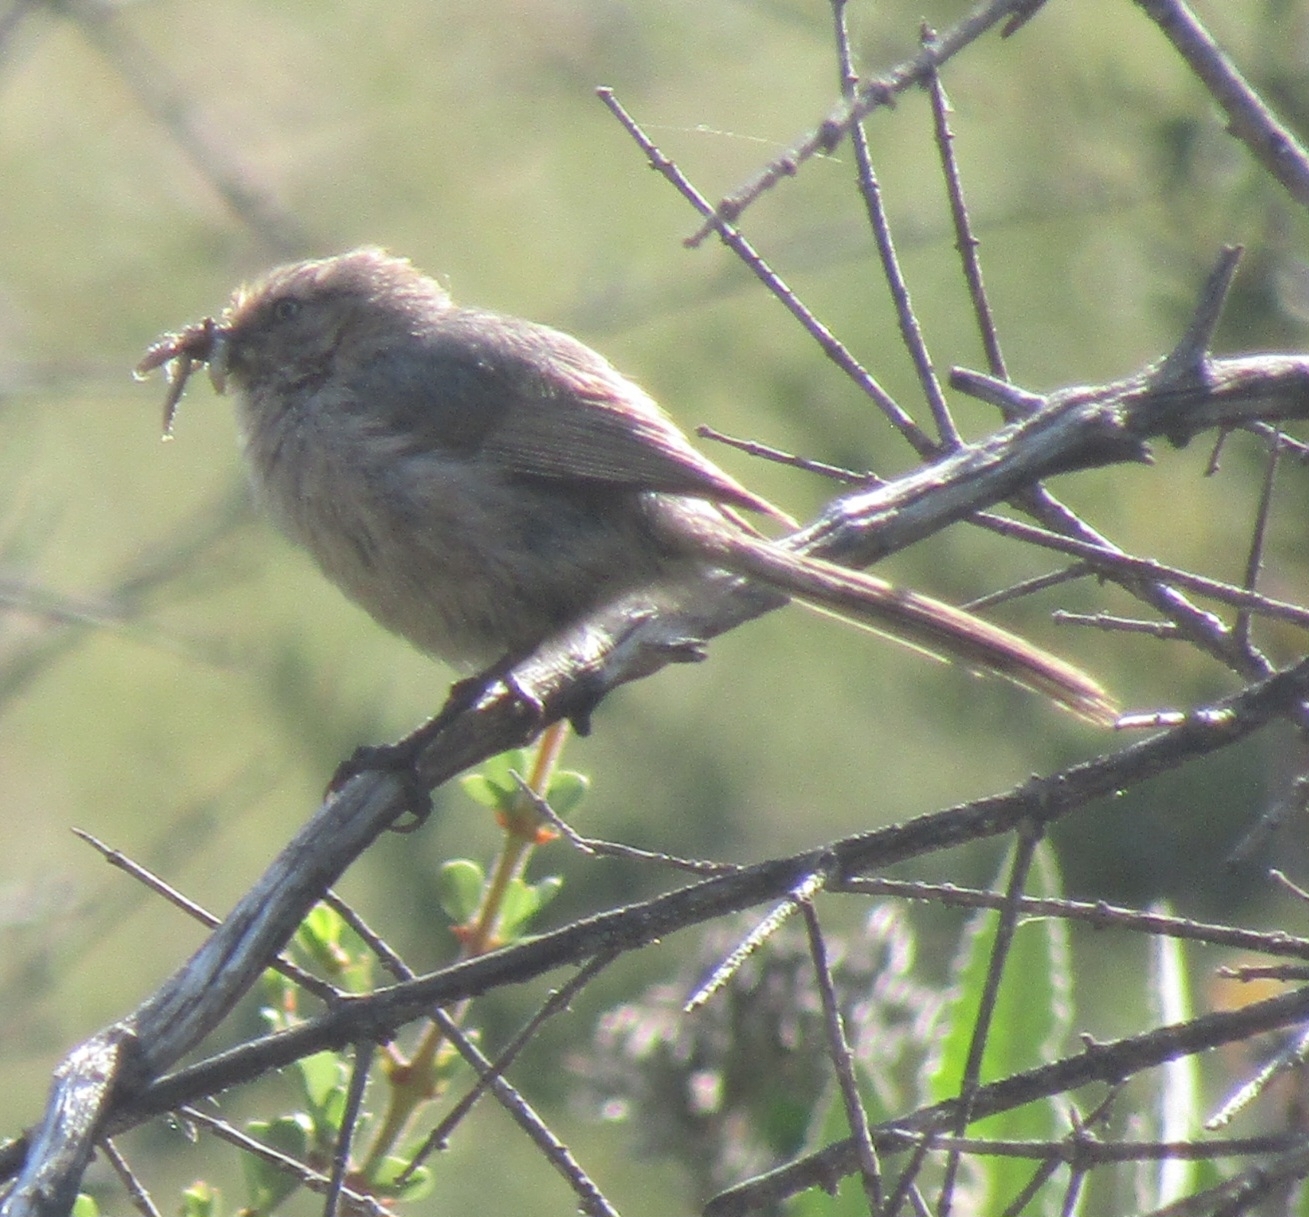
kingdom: Animalia
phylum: Chordata
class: Aves
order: Passeriformes
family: Aegithalidae
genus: Psaltriparus
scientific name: Psaltriparus minimus
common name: American bushtit
